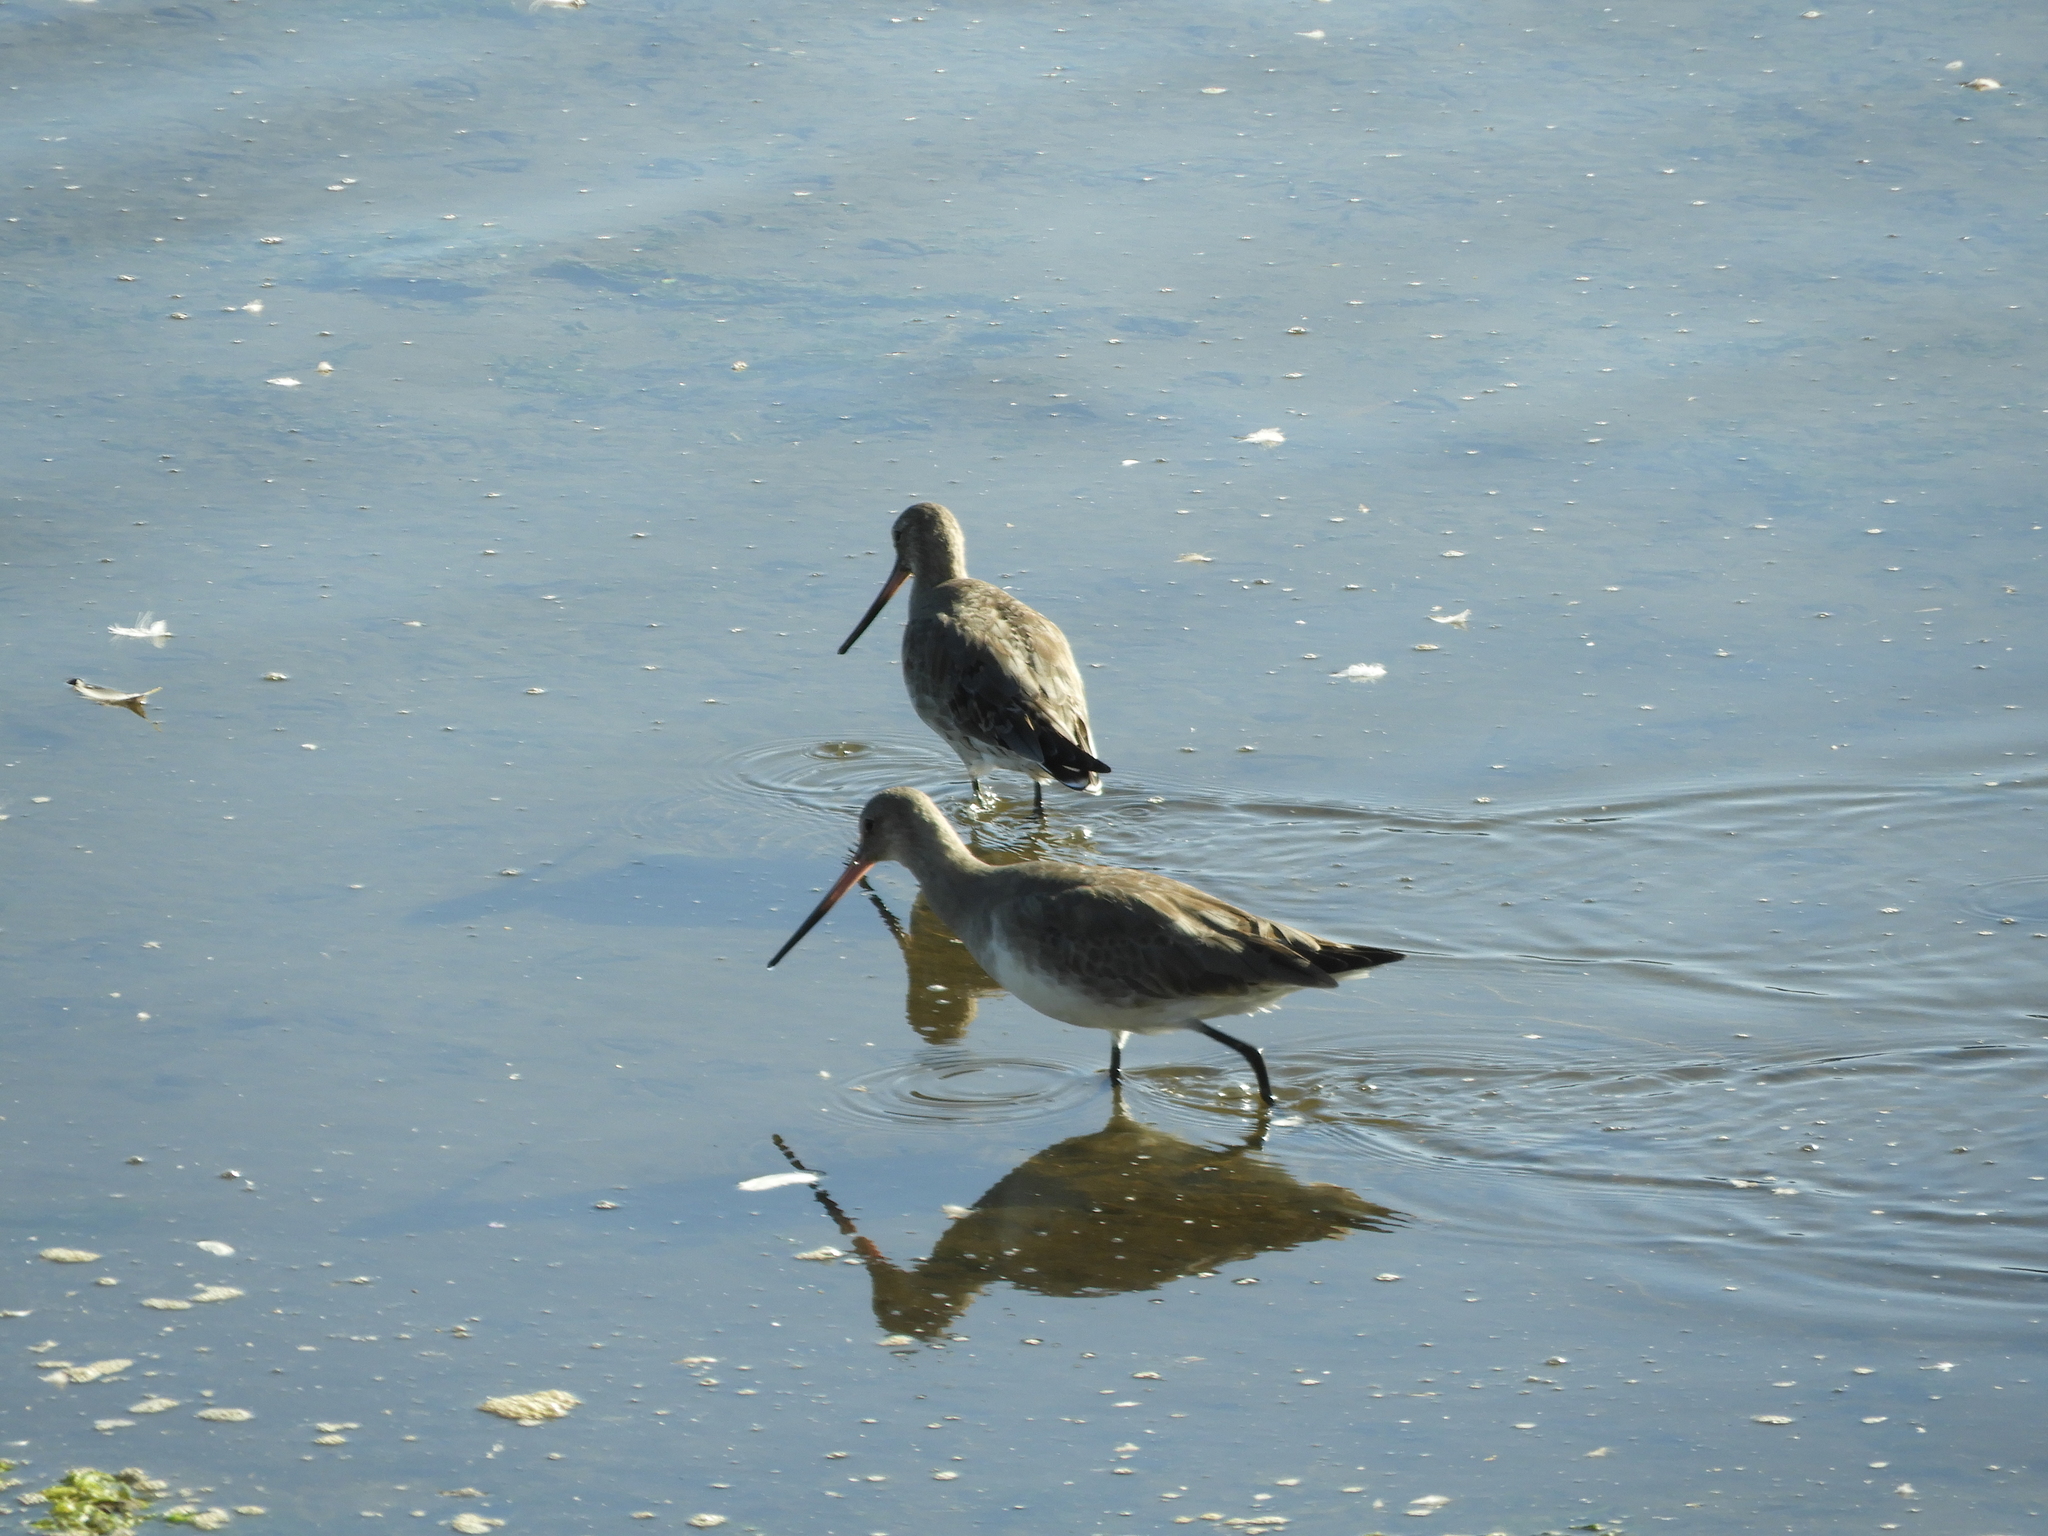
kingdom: Animalia
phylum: Chordata
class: Aves
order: Charadriiformes
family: Scolopacidae
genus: Limosa
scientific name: Limosa haemastica
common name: Hudsonian godwit
